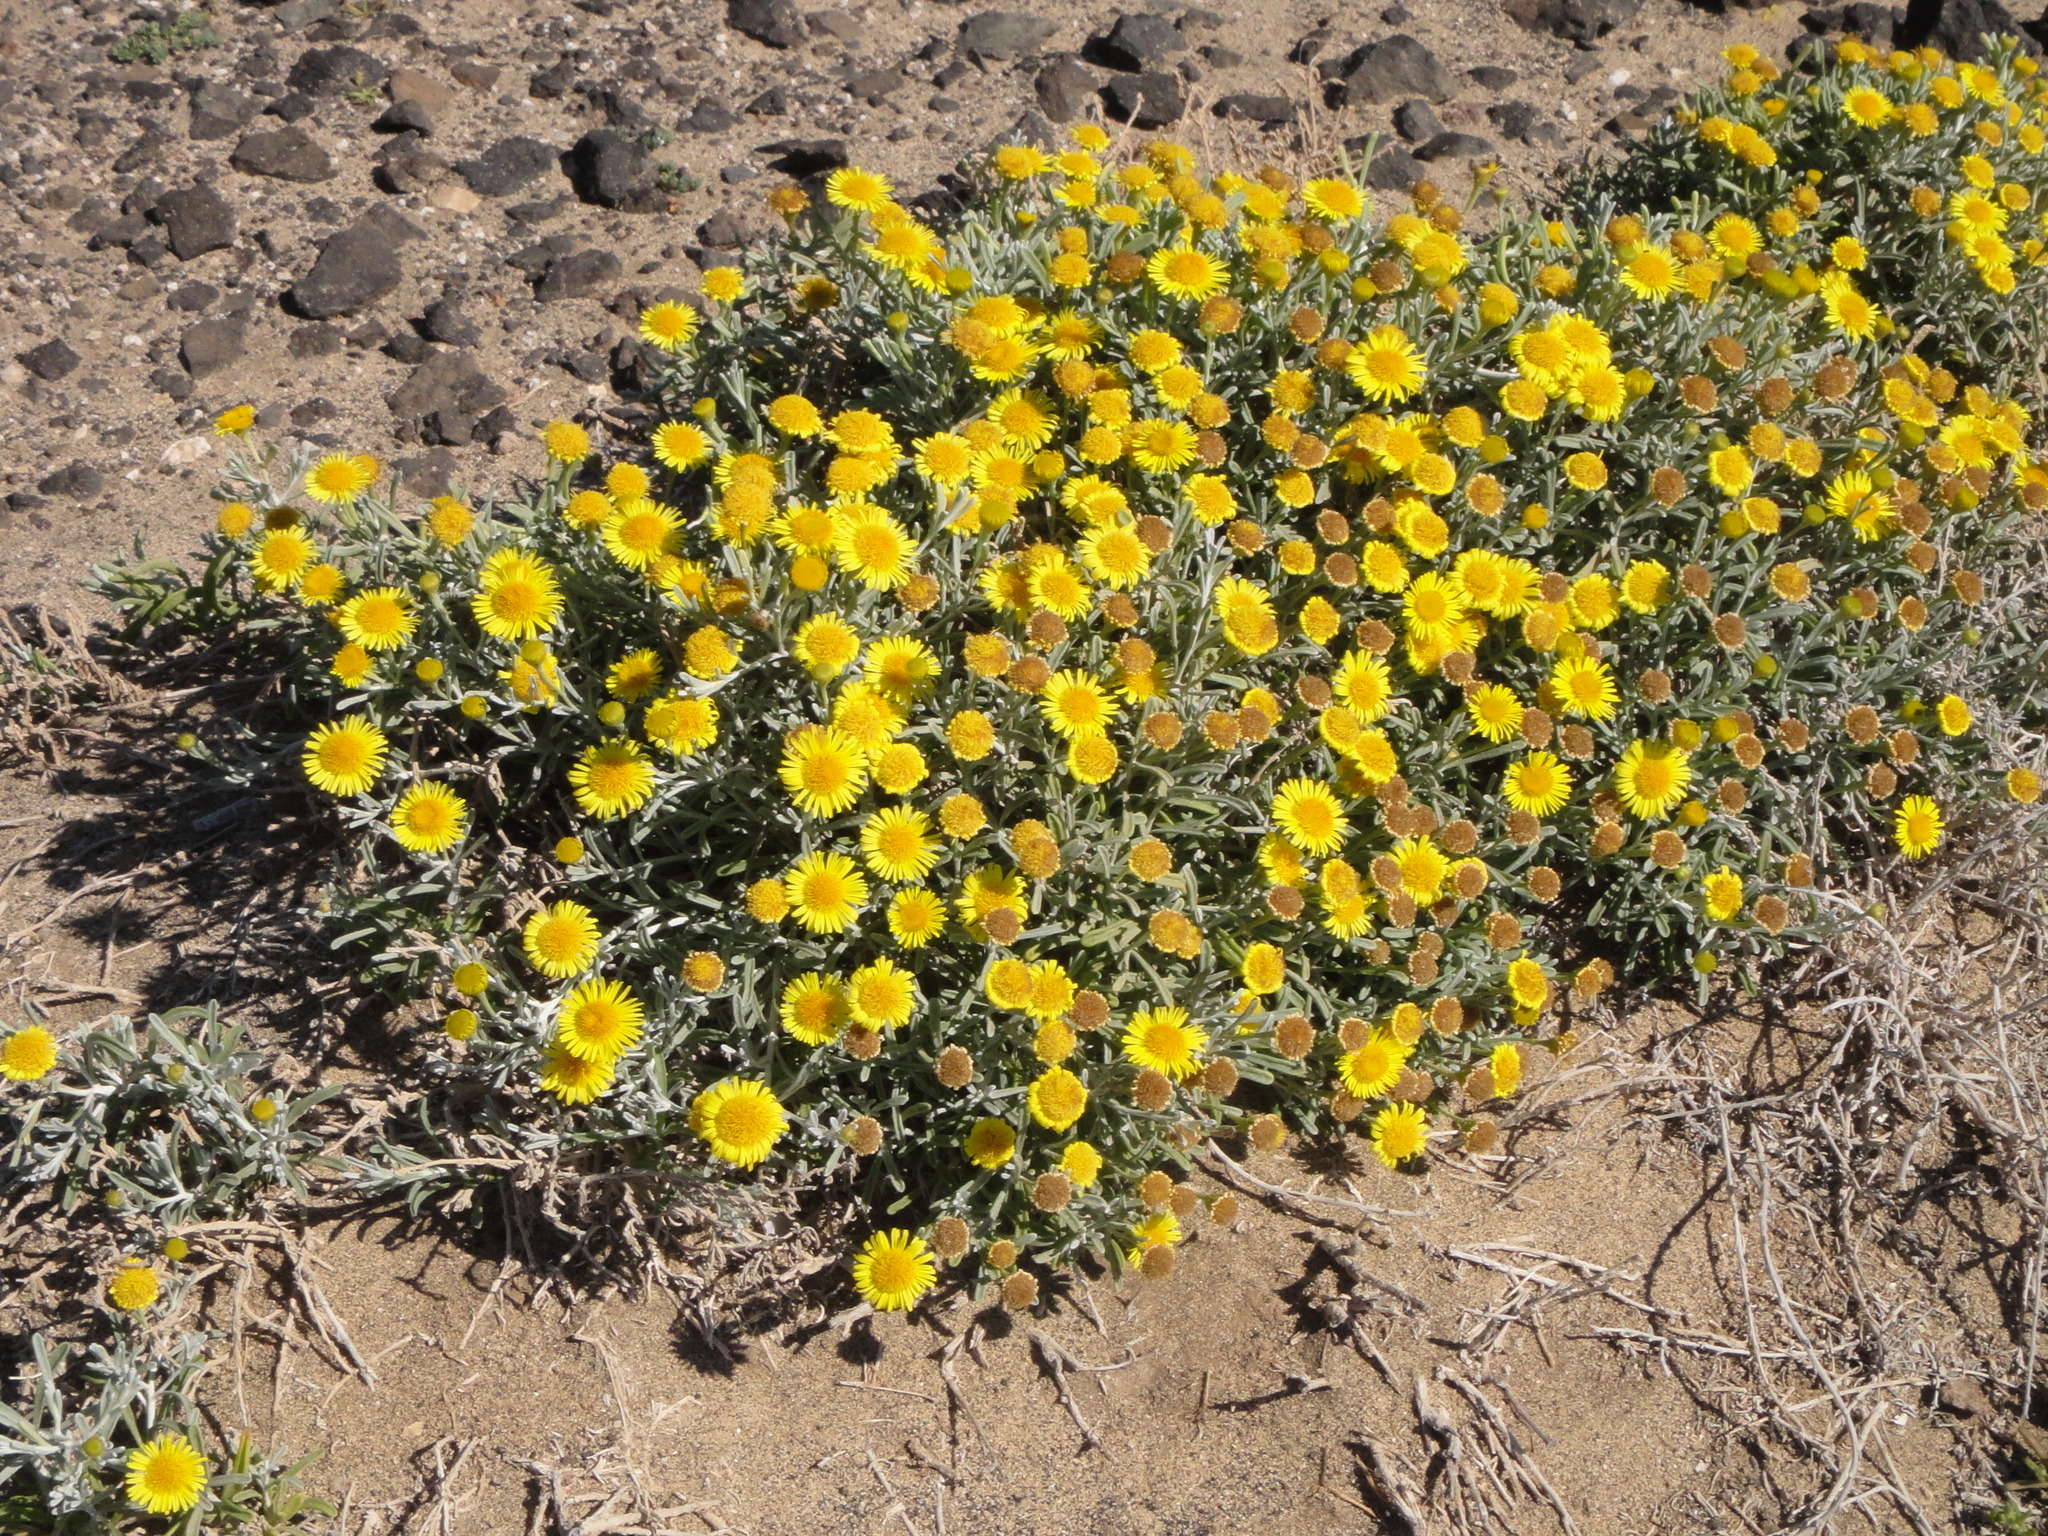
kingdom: Plantae
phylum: Tracheophyta
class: Magnoliopsida
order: Asterales
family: Asteraceae
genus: Pulicaria
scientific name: Pulicaria burchardii
